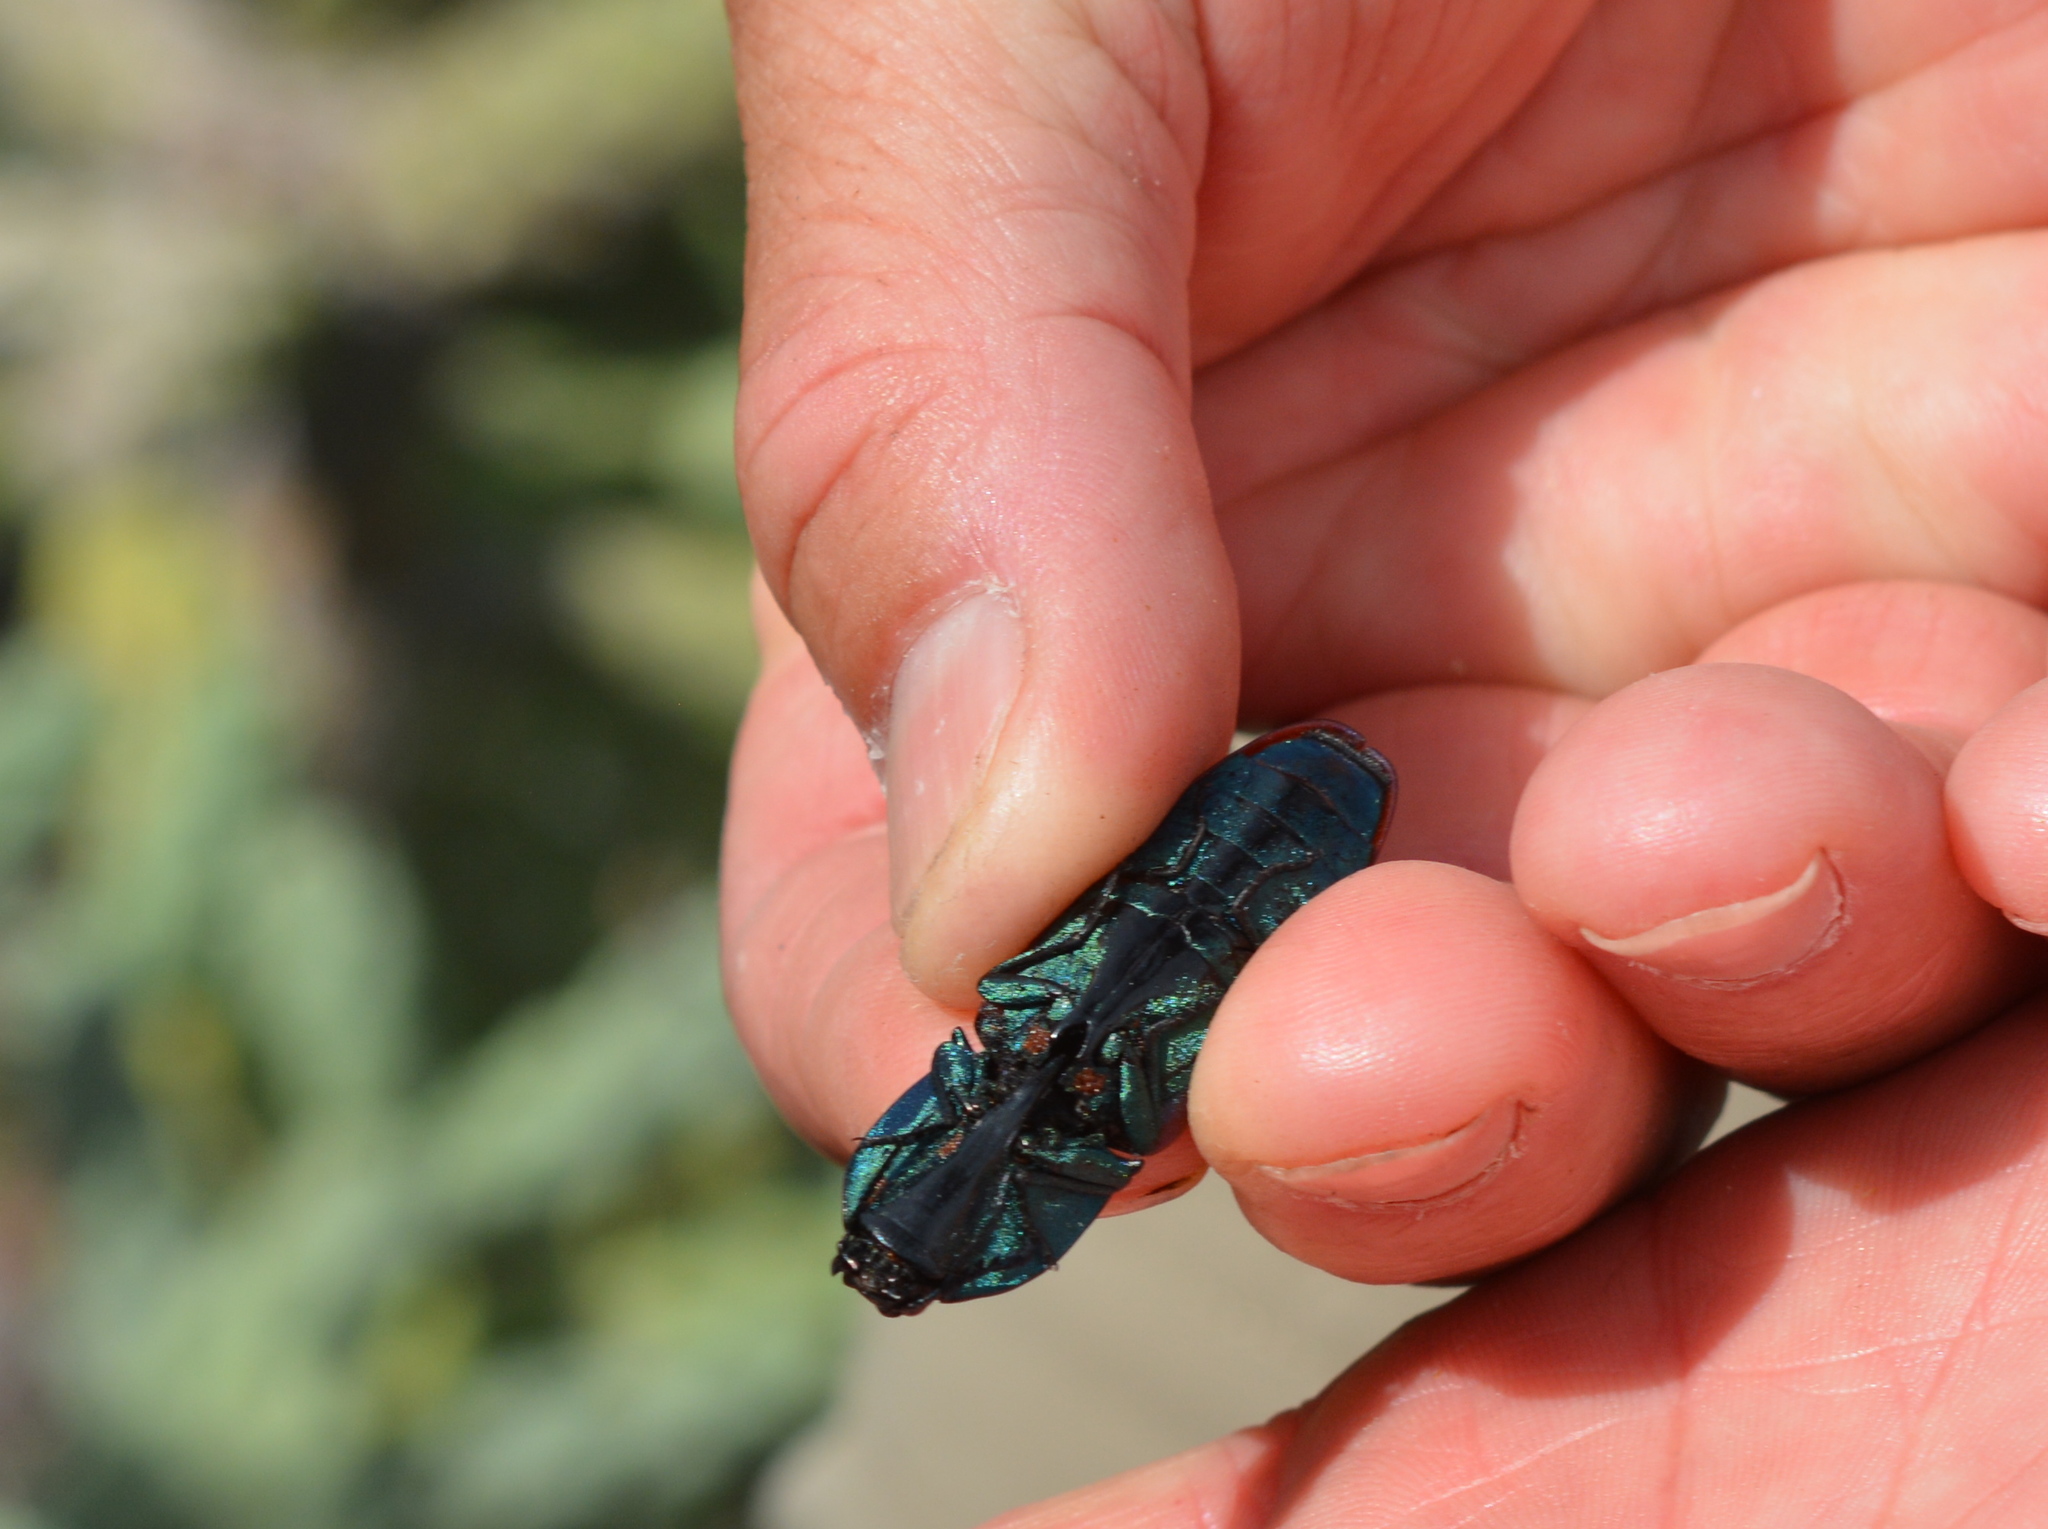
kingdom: Animalia
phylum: Arthropoda
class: Insecta
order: Coleoptera
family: Elateridae
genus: Chalcolepidius
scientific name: Chalcolepidius
